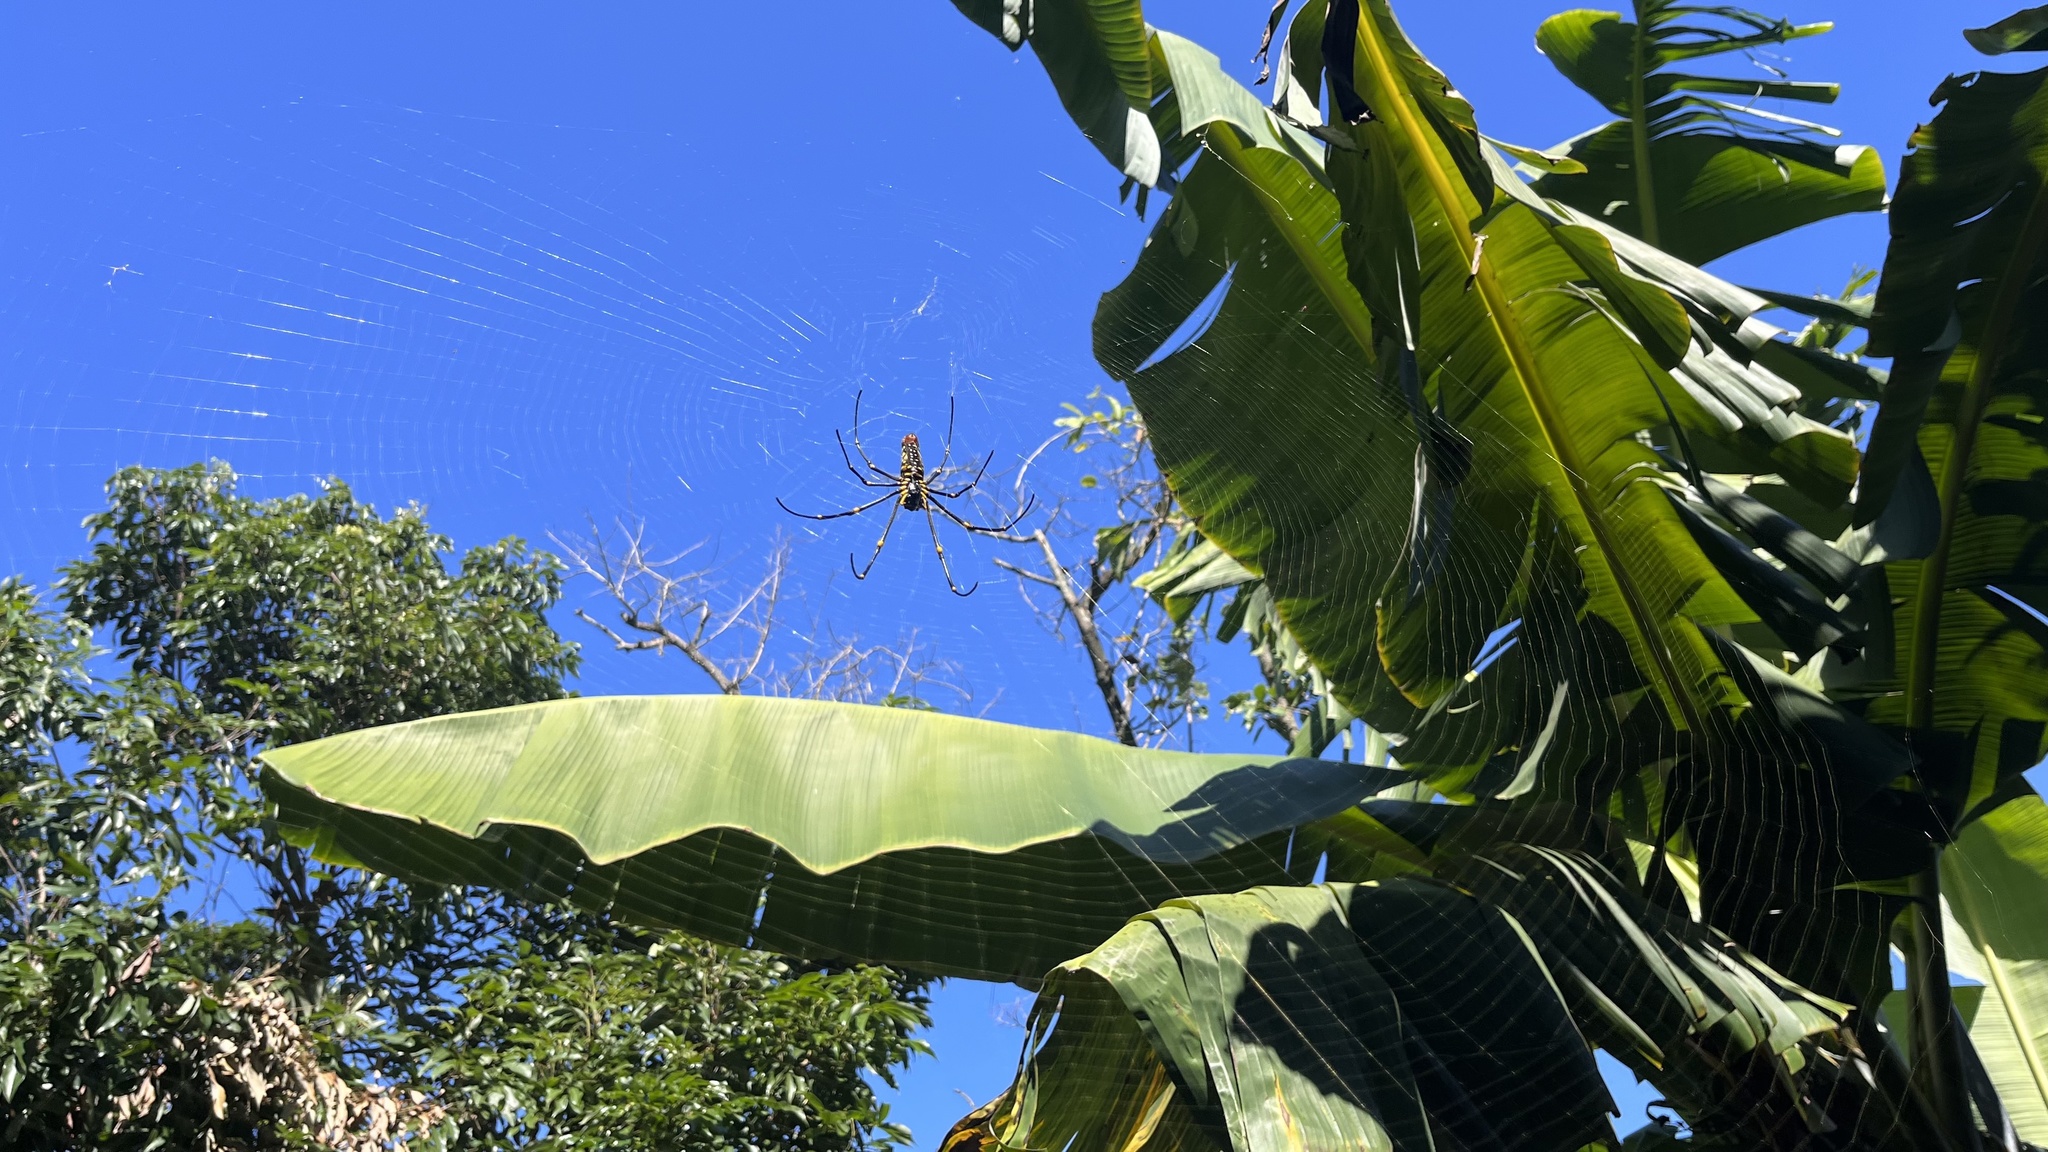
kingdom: Animalia
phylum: Arthropoda
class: Arachnida
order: Araneae
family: Araneidae
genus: Nephila
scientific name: Nephila pilipes
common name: Giant golden orb weaver
